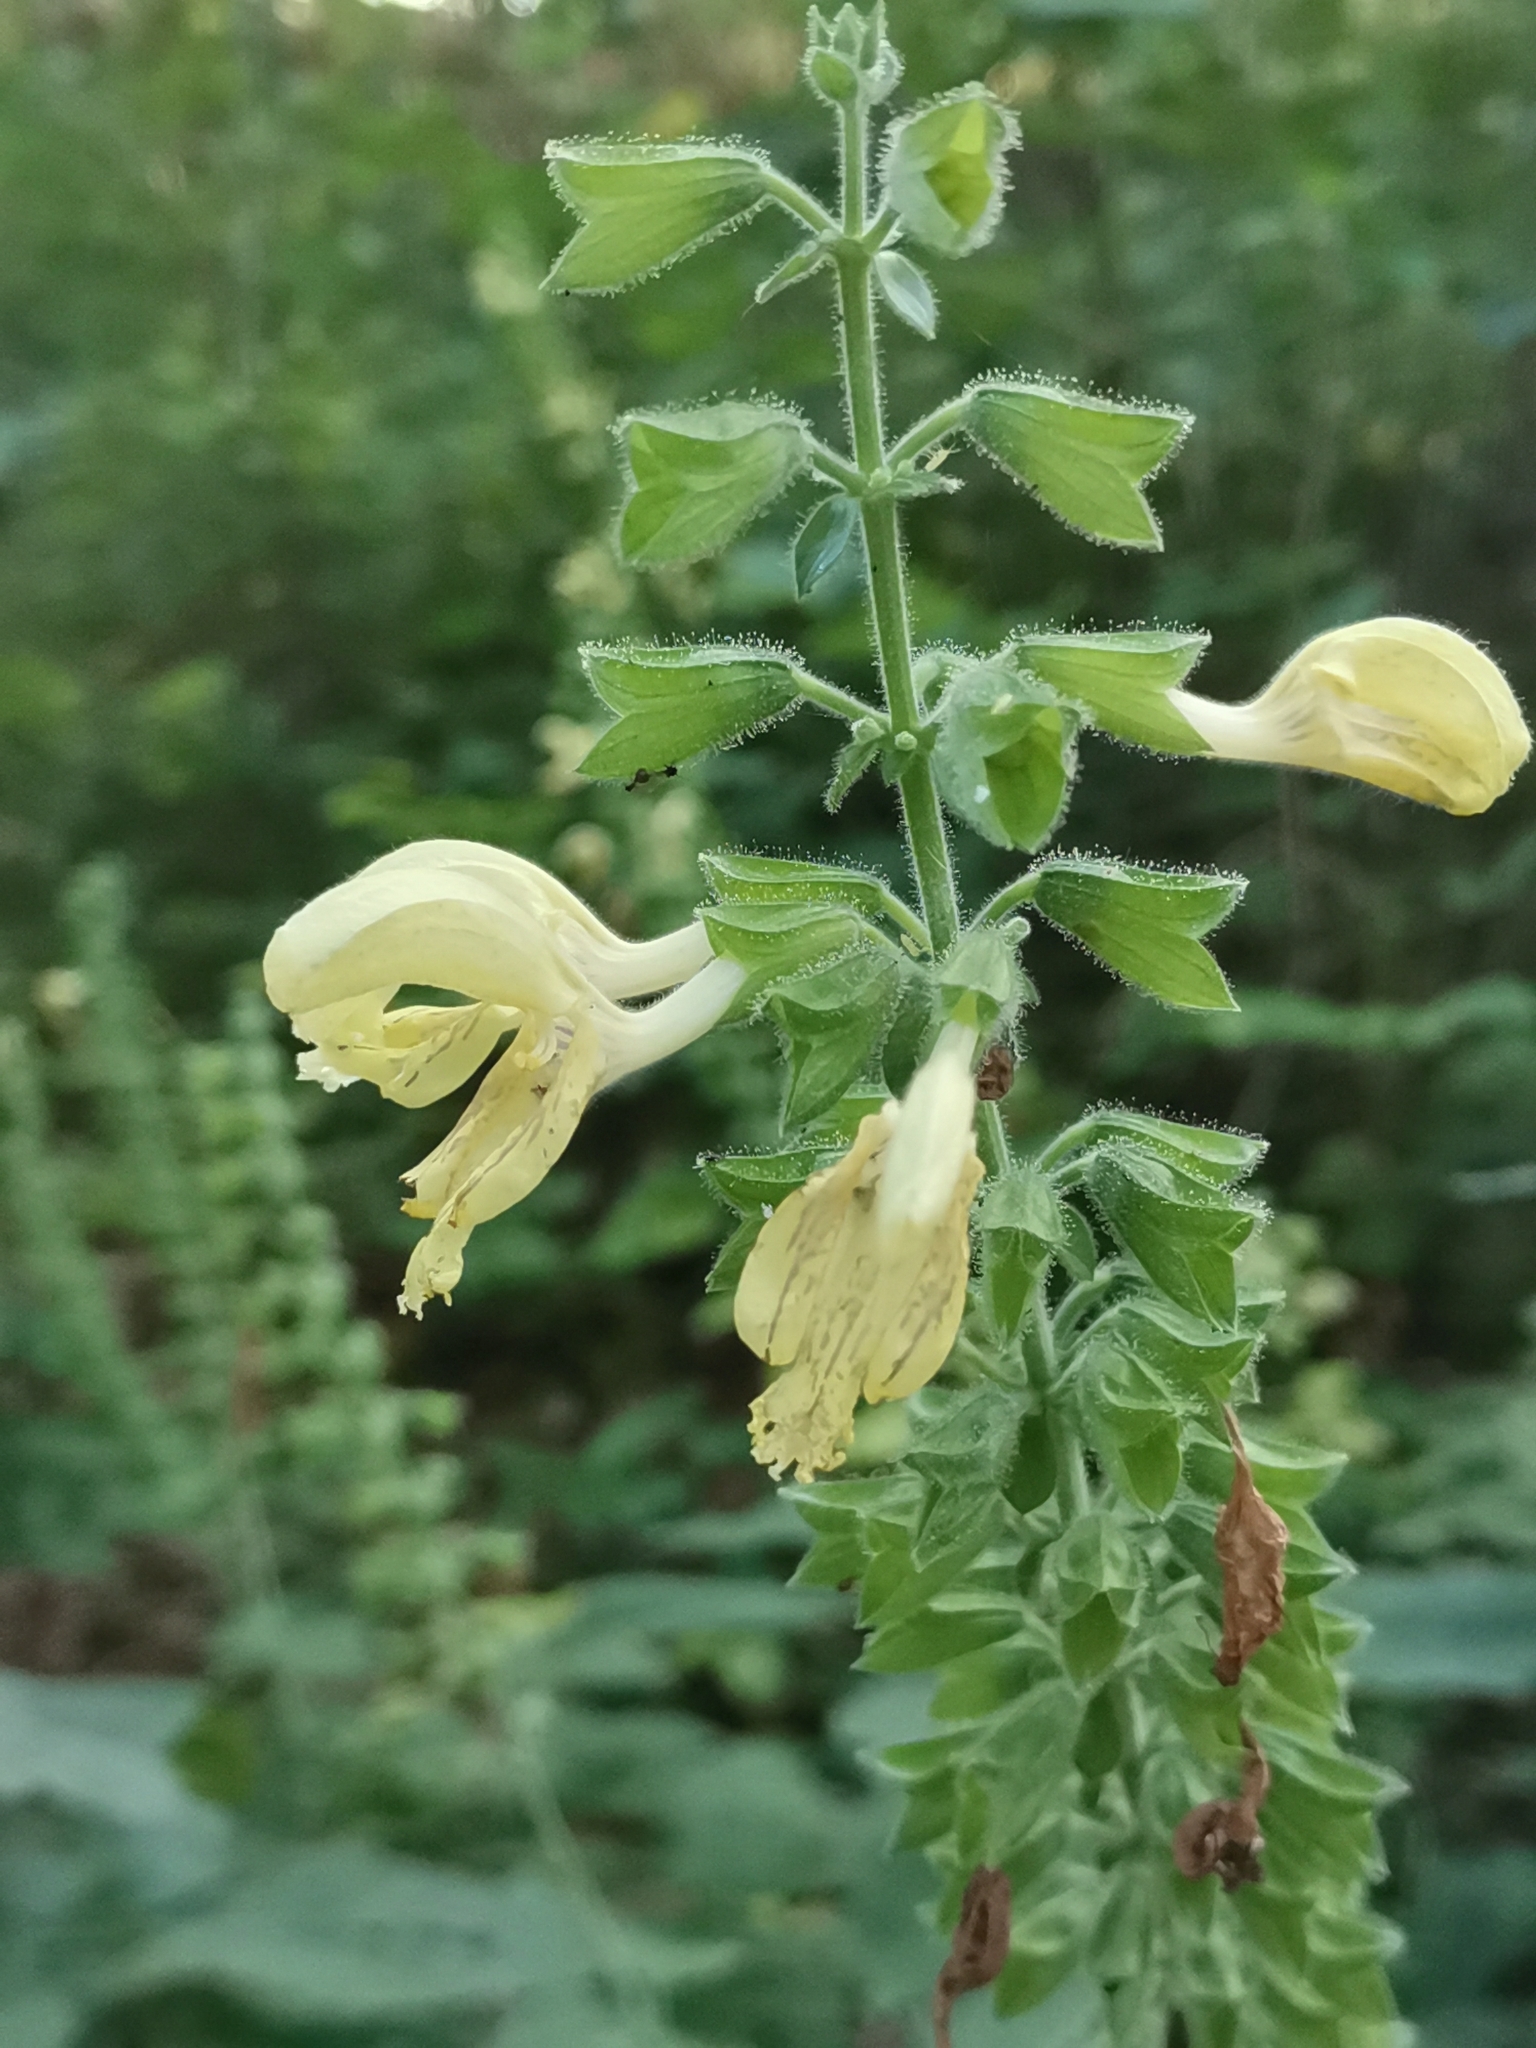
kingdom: Plantae
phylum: Tracheophyta
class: Magnoliopsida
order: Lamiales
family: Lamiaceae
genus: Salvia
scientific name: Salvia glutinosa
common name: Sticky clary
